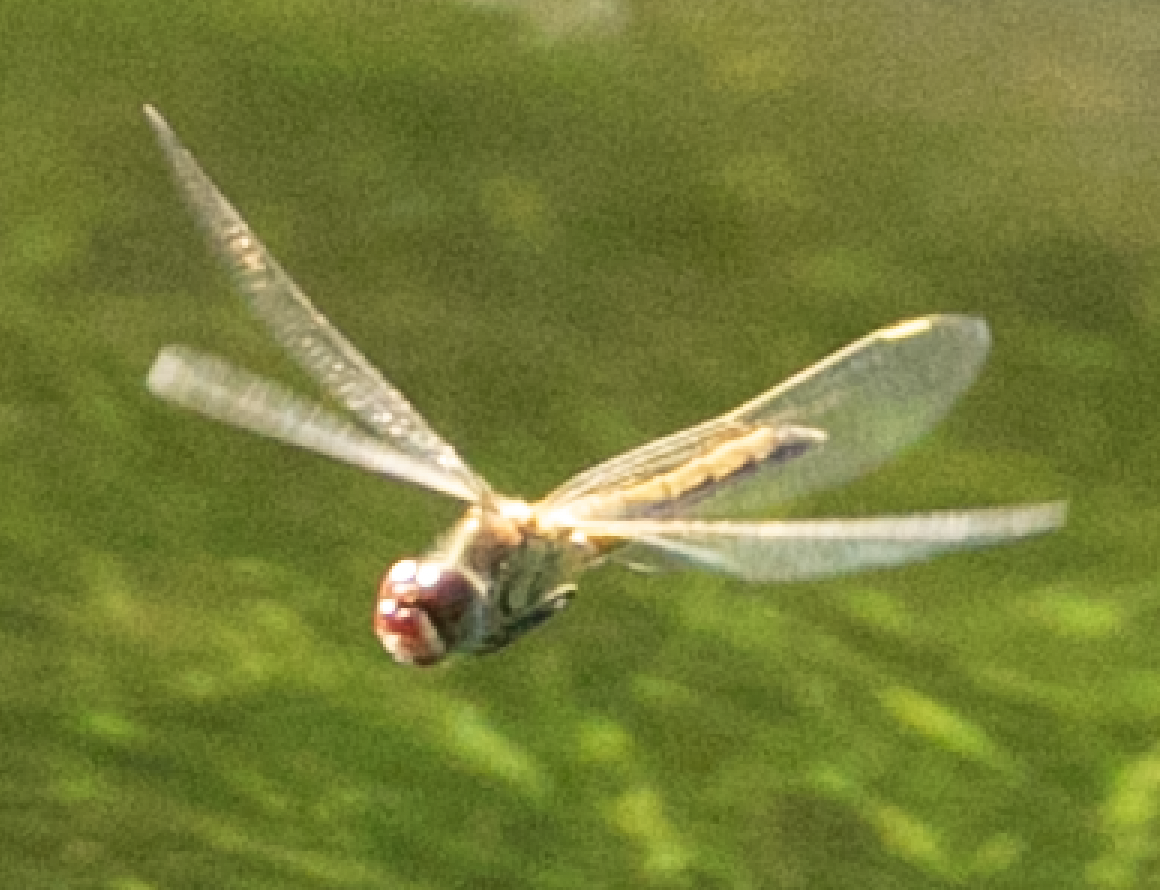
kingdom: Animalia
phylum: Arthropoda
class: Insecta
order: Odonata
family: Libellulidae
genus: Sympetrum
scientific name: Sympetrum fonscolombii
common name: Red-veined darter
